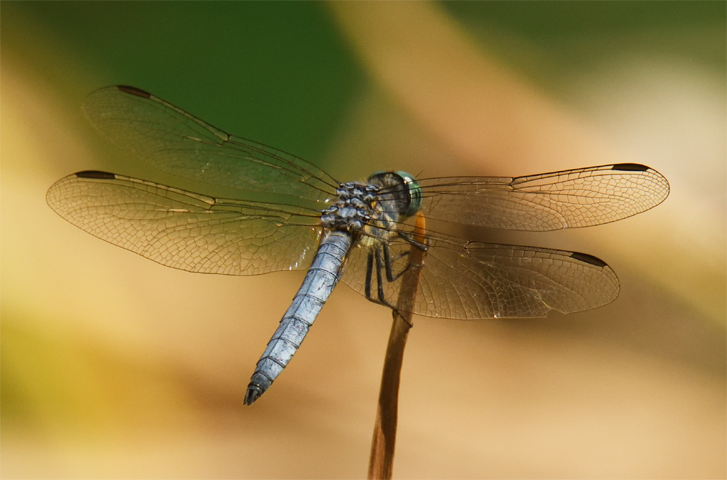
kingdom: Animalia
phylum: Arthropoda
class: Insecta
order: Odonata
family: Libellulidae
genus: Pachydiplax
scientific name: Pachydiplax longipennis
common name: Blue dasher
